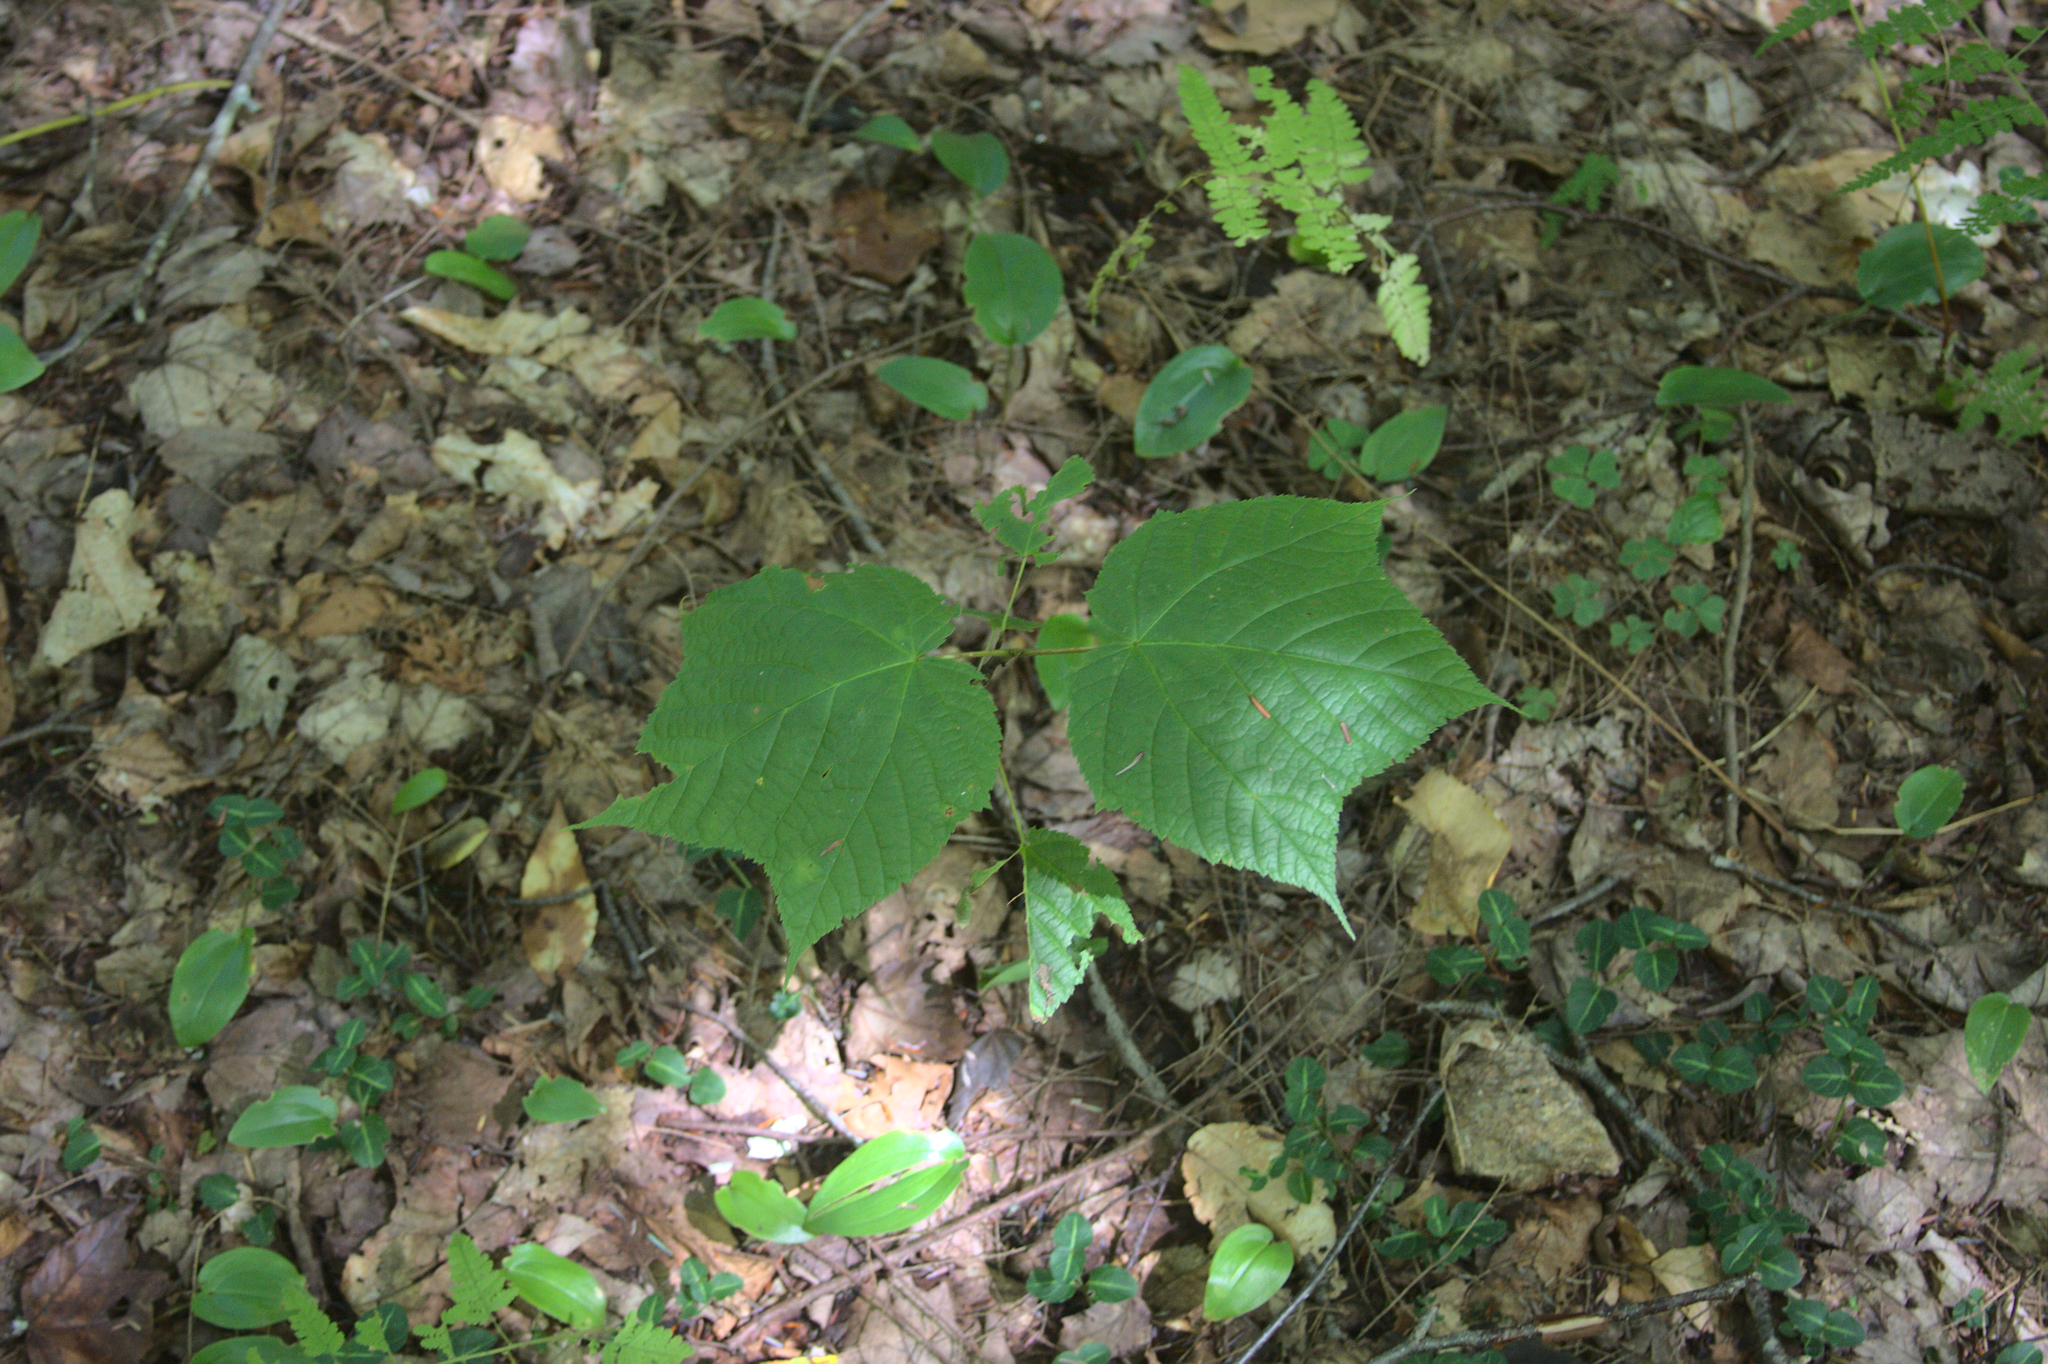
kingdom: Plantae
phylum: Tracheophyta
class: Magnoliopsida
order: Sapindales
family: Sapindaceae
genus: Acer
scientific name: Acer pensylvanicum
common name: Moosewood
